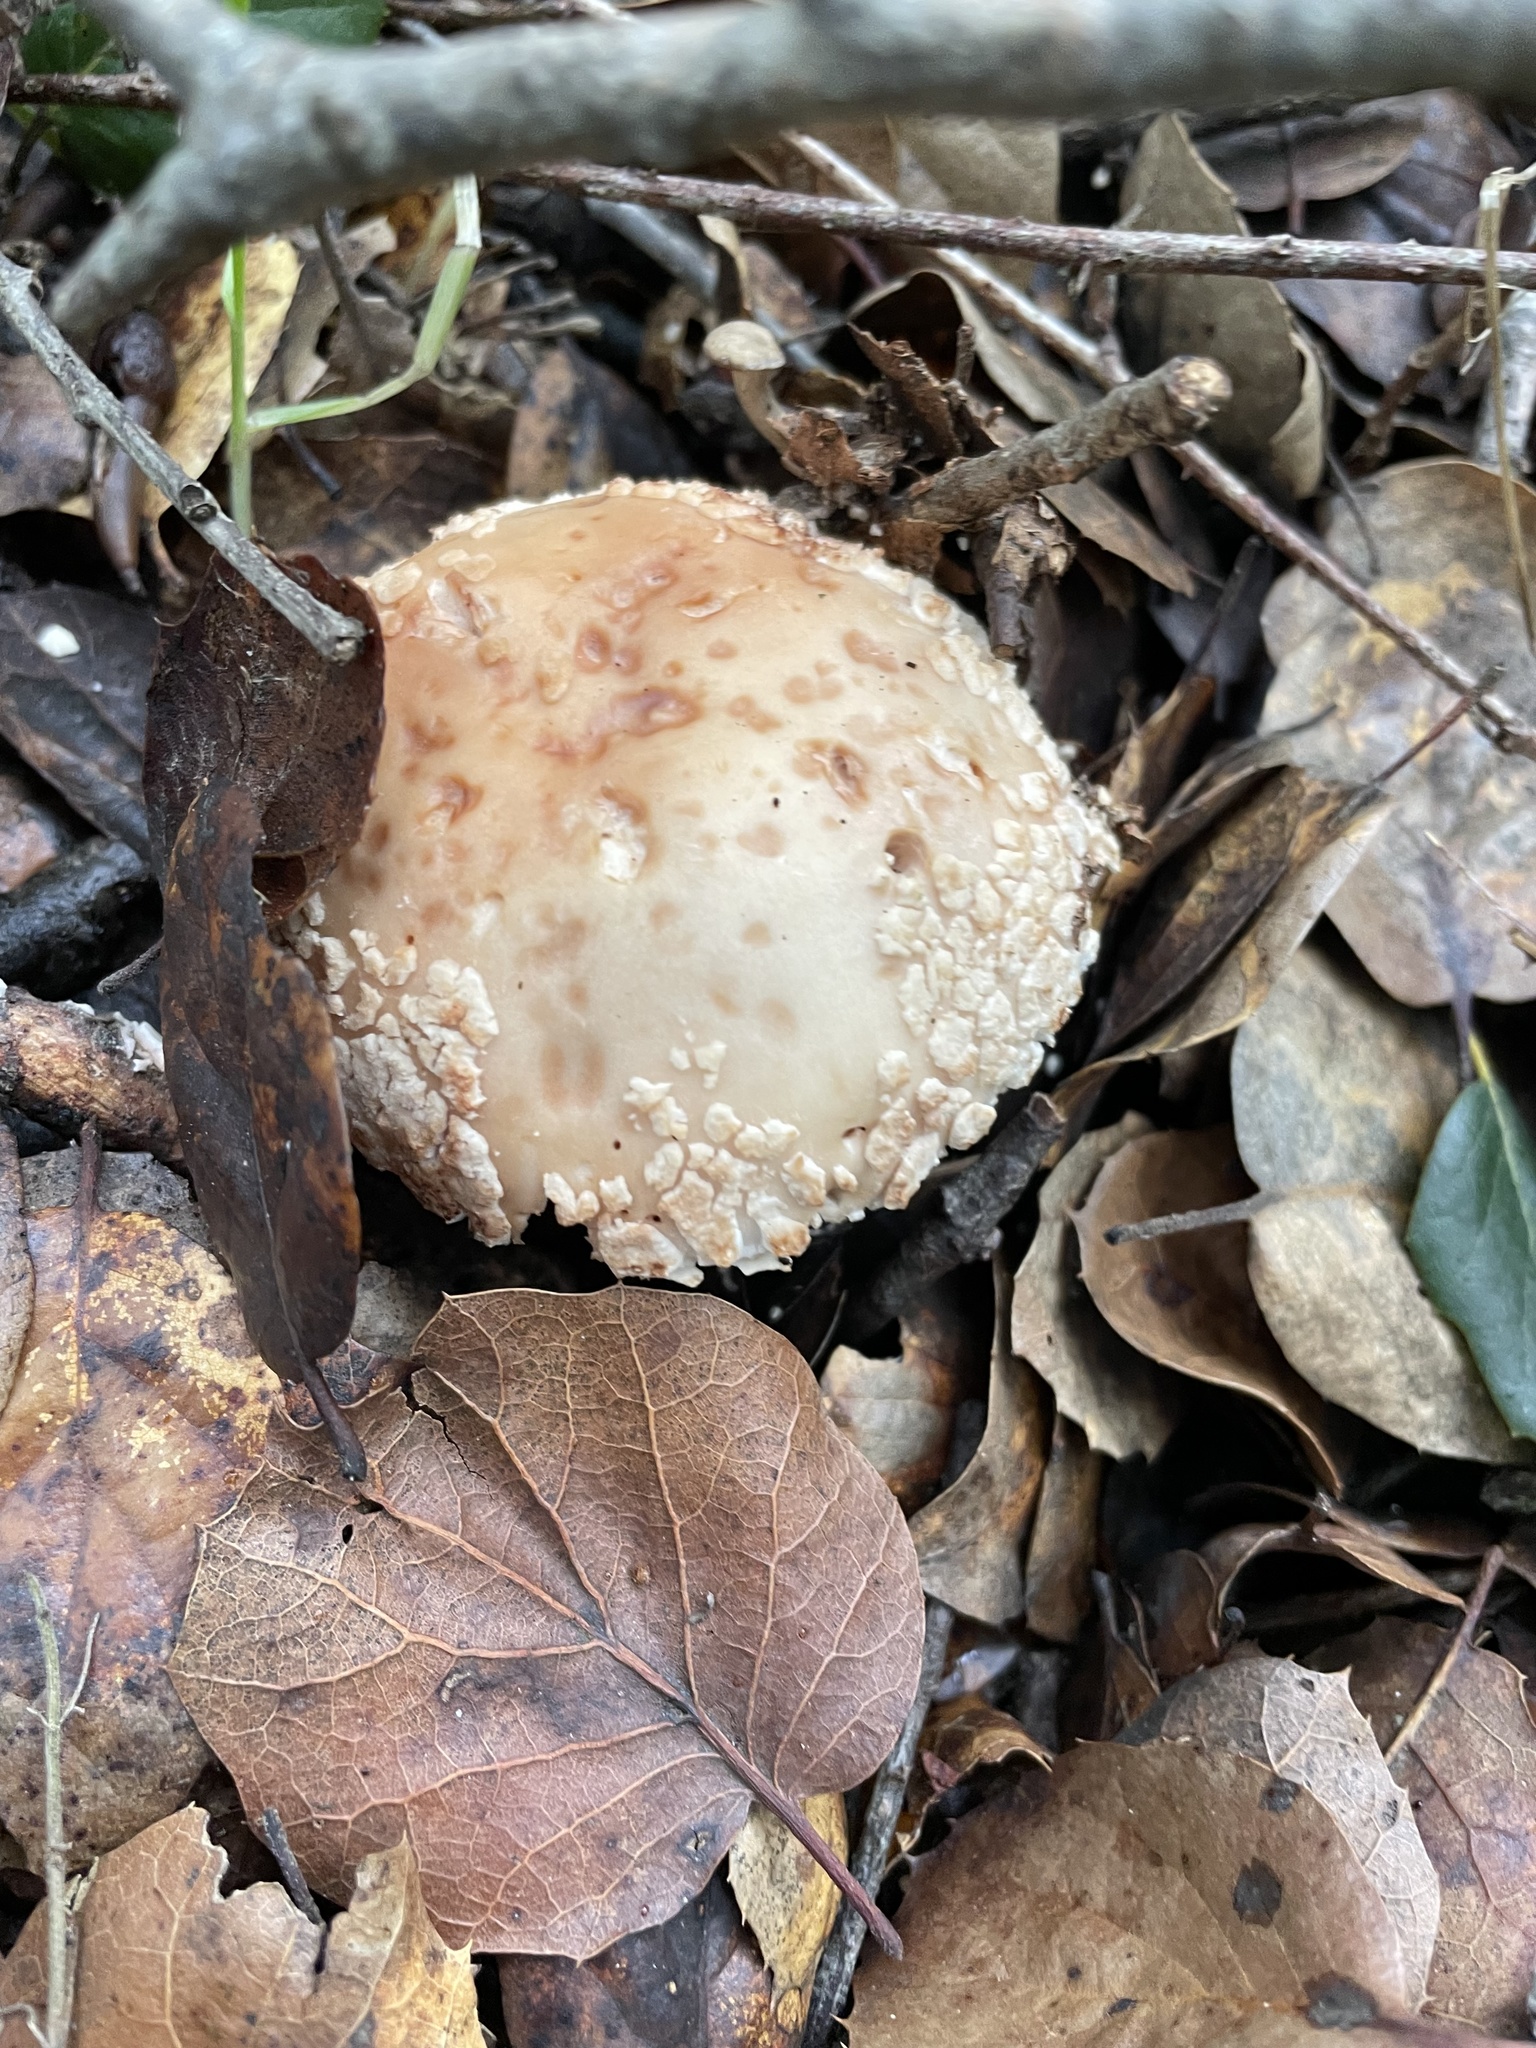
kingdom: Fungi
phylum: Basidiomycota
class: Agaricomycetes
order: Agaricales
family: Amanitaceae
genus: Amanita
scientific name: Amanita novinupta
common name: Blushing bride
